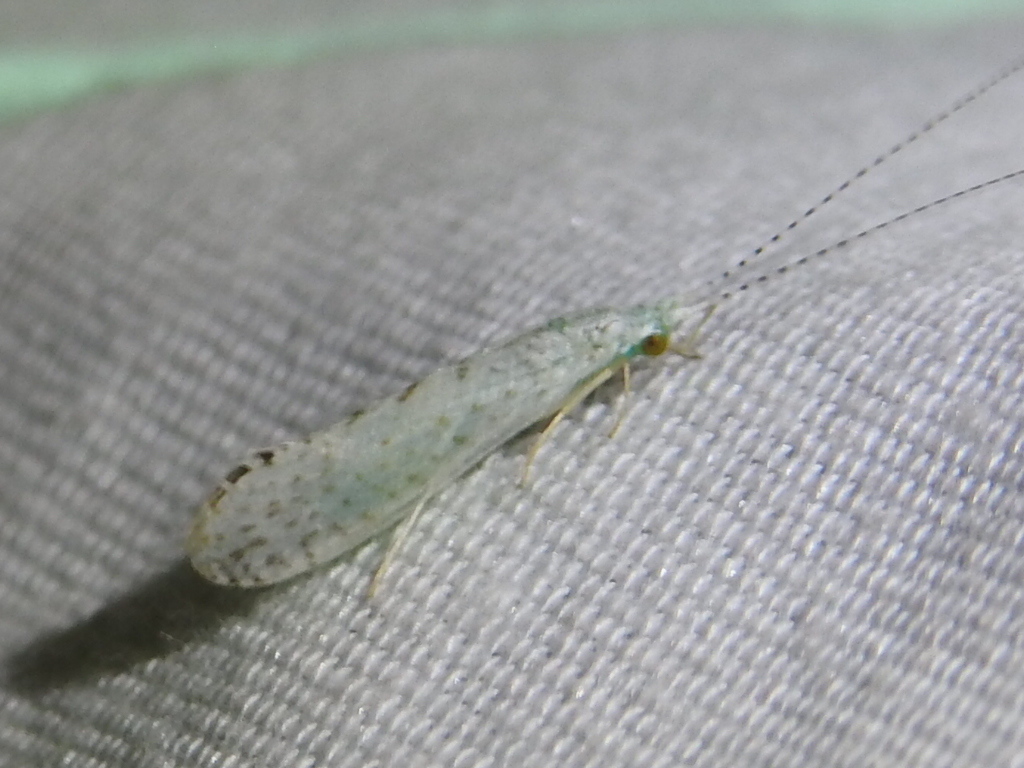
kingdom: Animalia
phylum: Arthropoda
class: Insecta
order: Trichoptera
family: Leptoceridae
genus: Nectopsyche
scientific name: Nectopsyche candida
